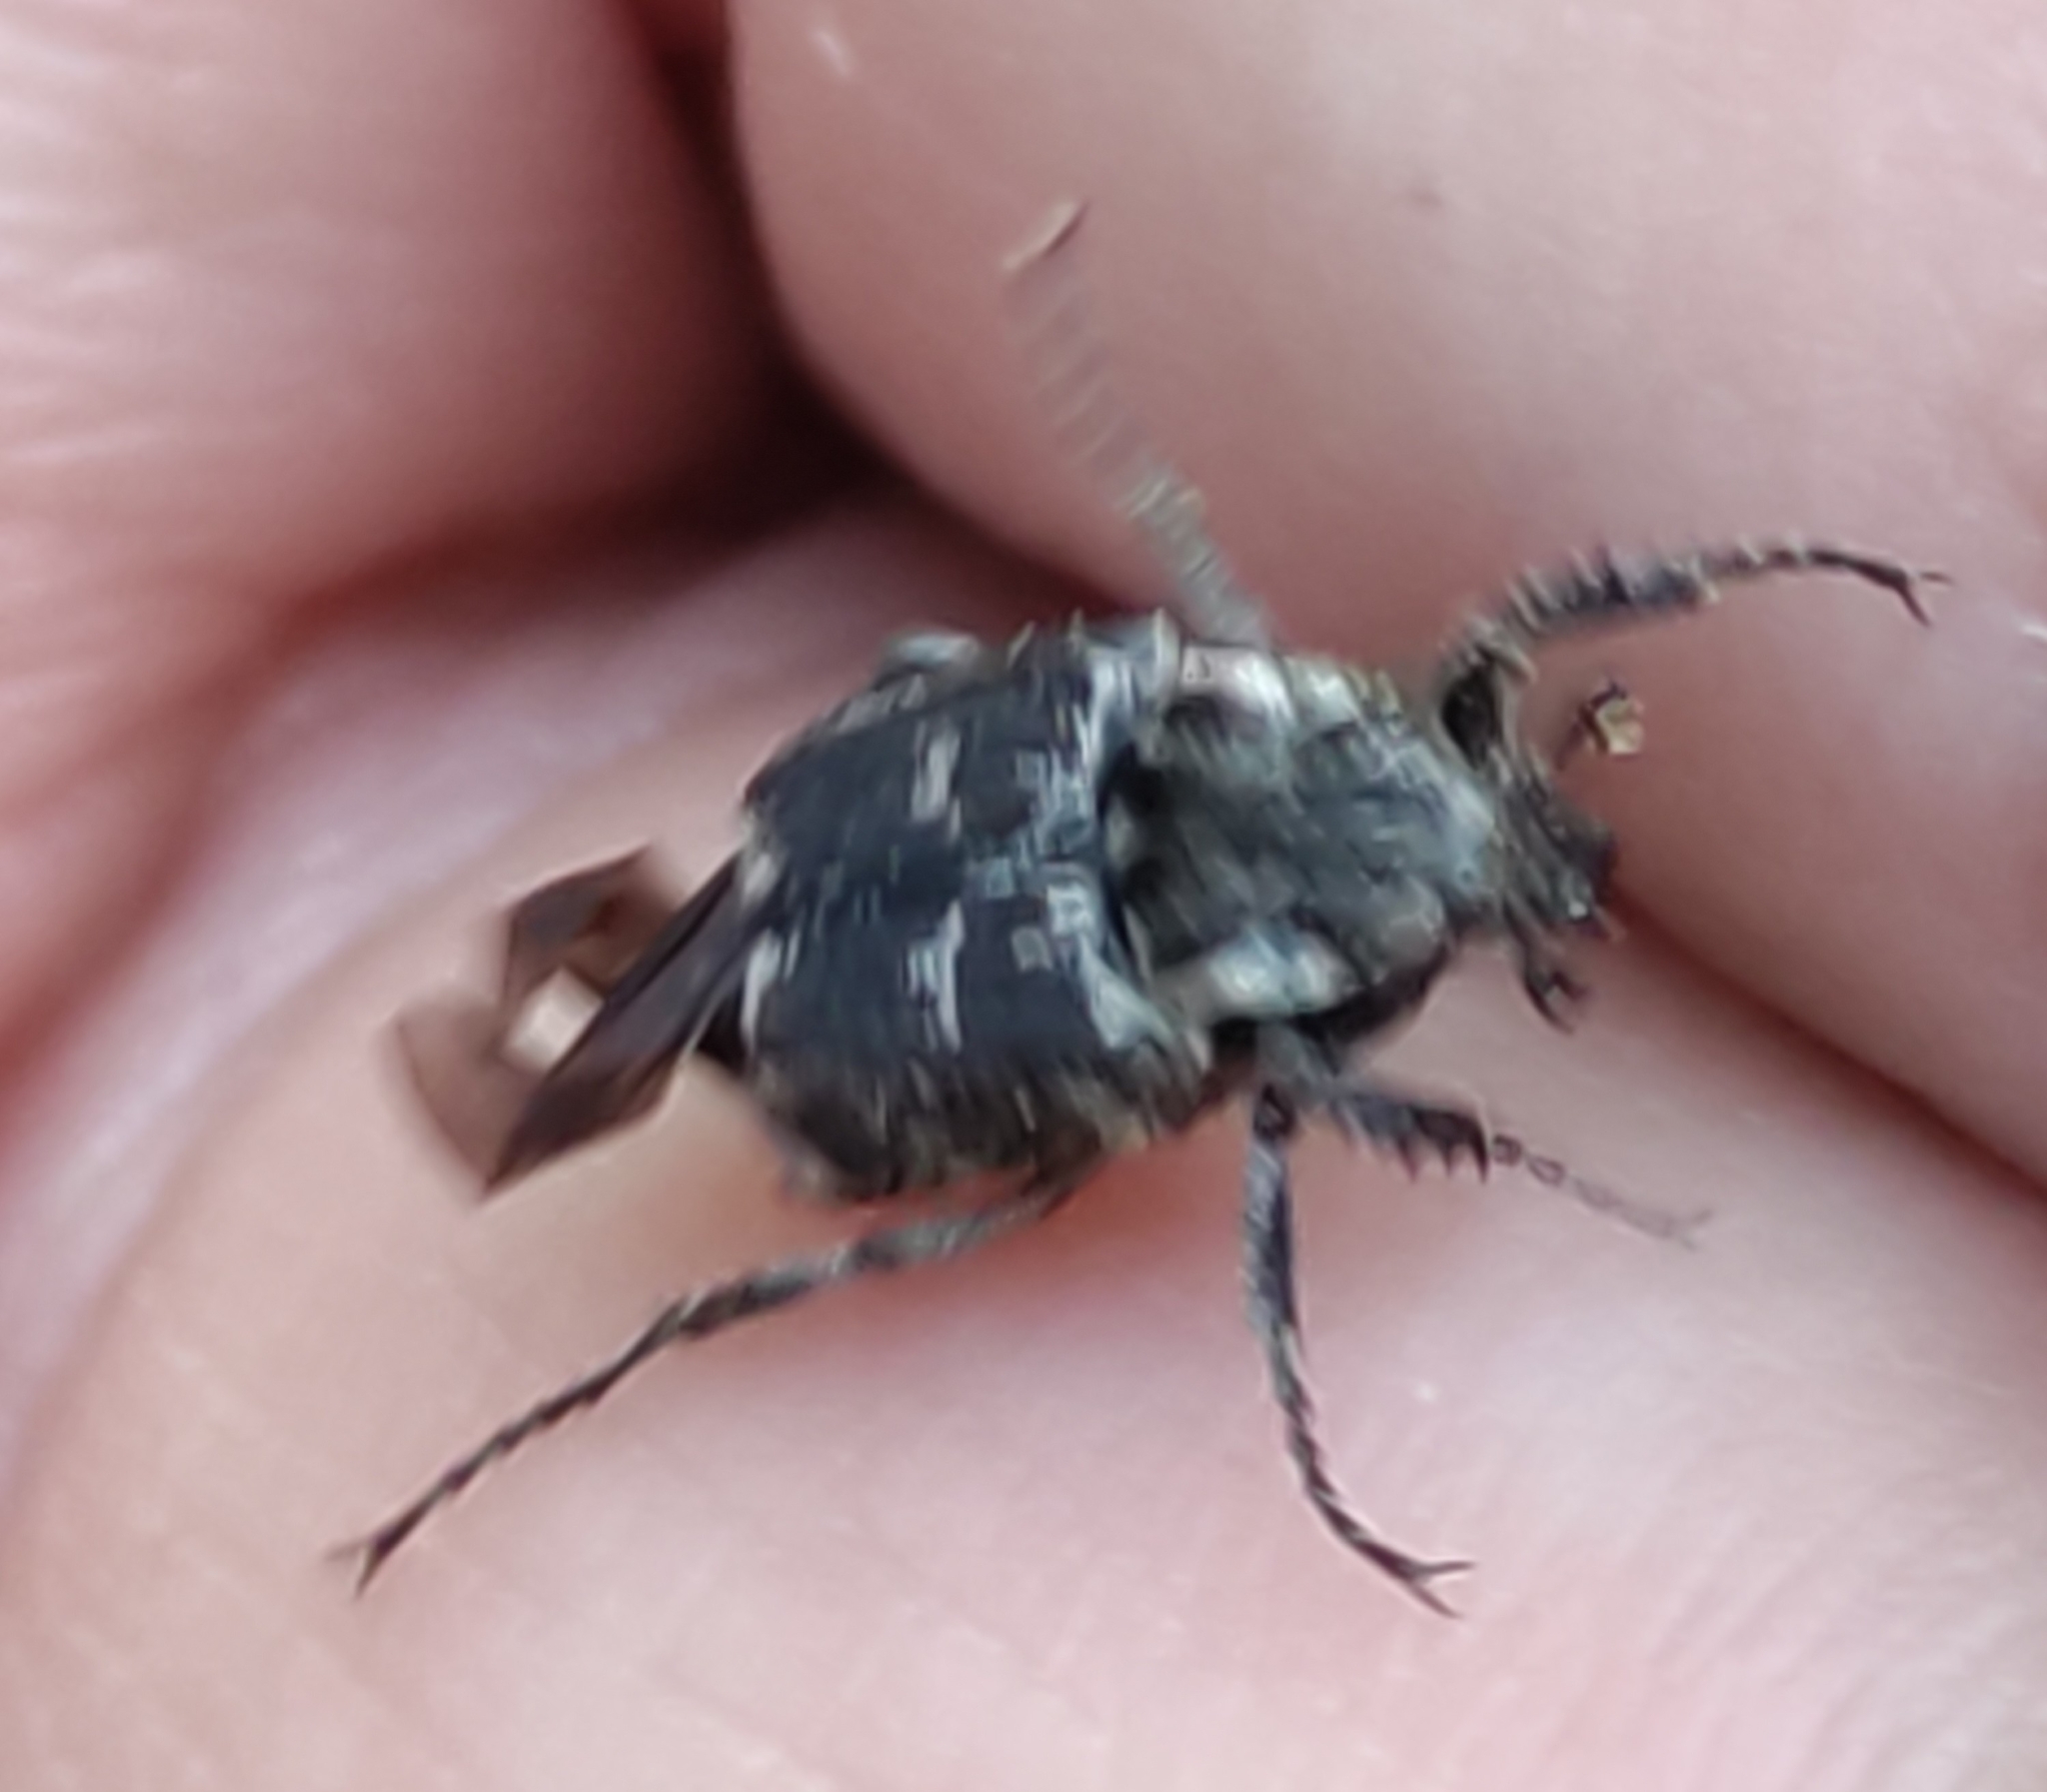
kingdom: Animalia
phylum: Arthropoda
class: Insecta
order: Coleoptera
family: Scarabaeidae
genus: Valgus
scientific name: Valgus hemipterus
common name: Bug flower chafer
